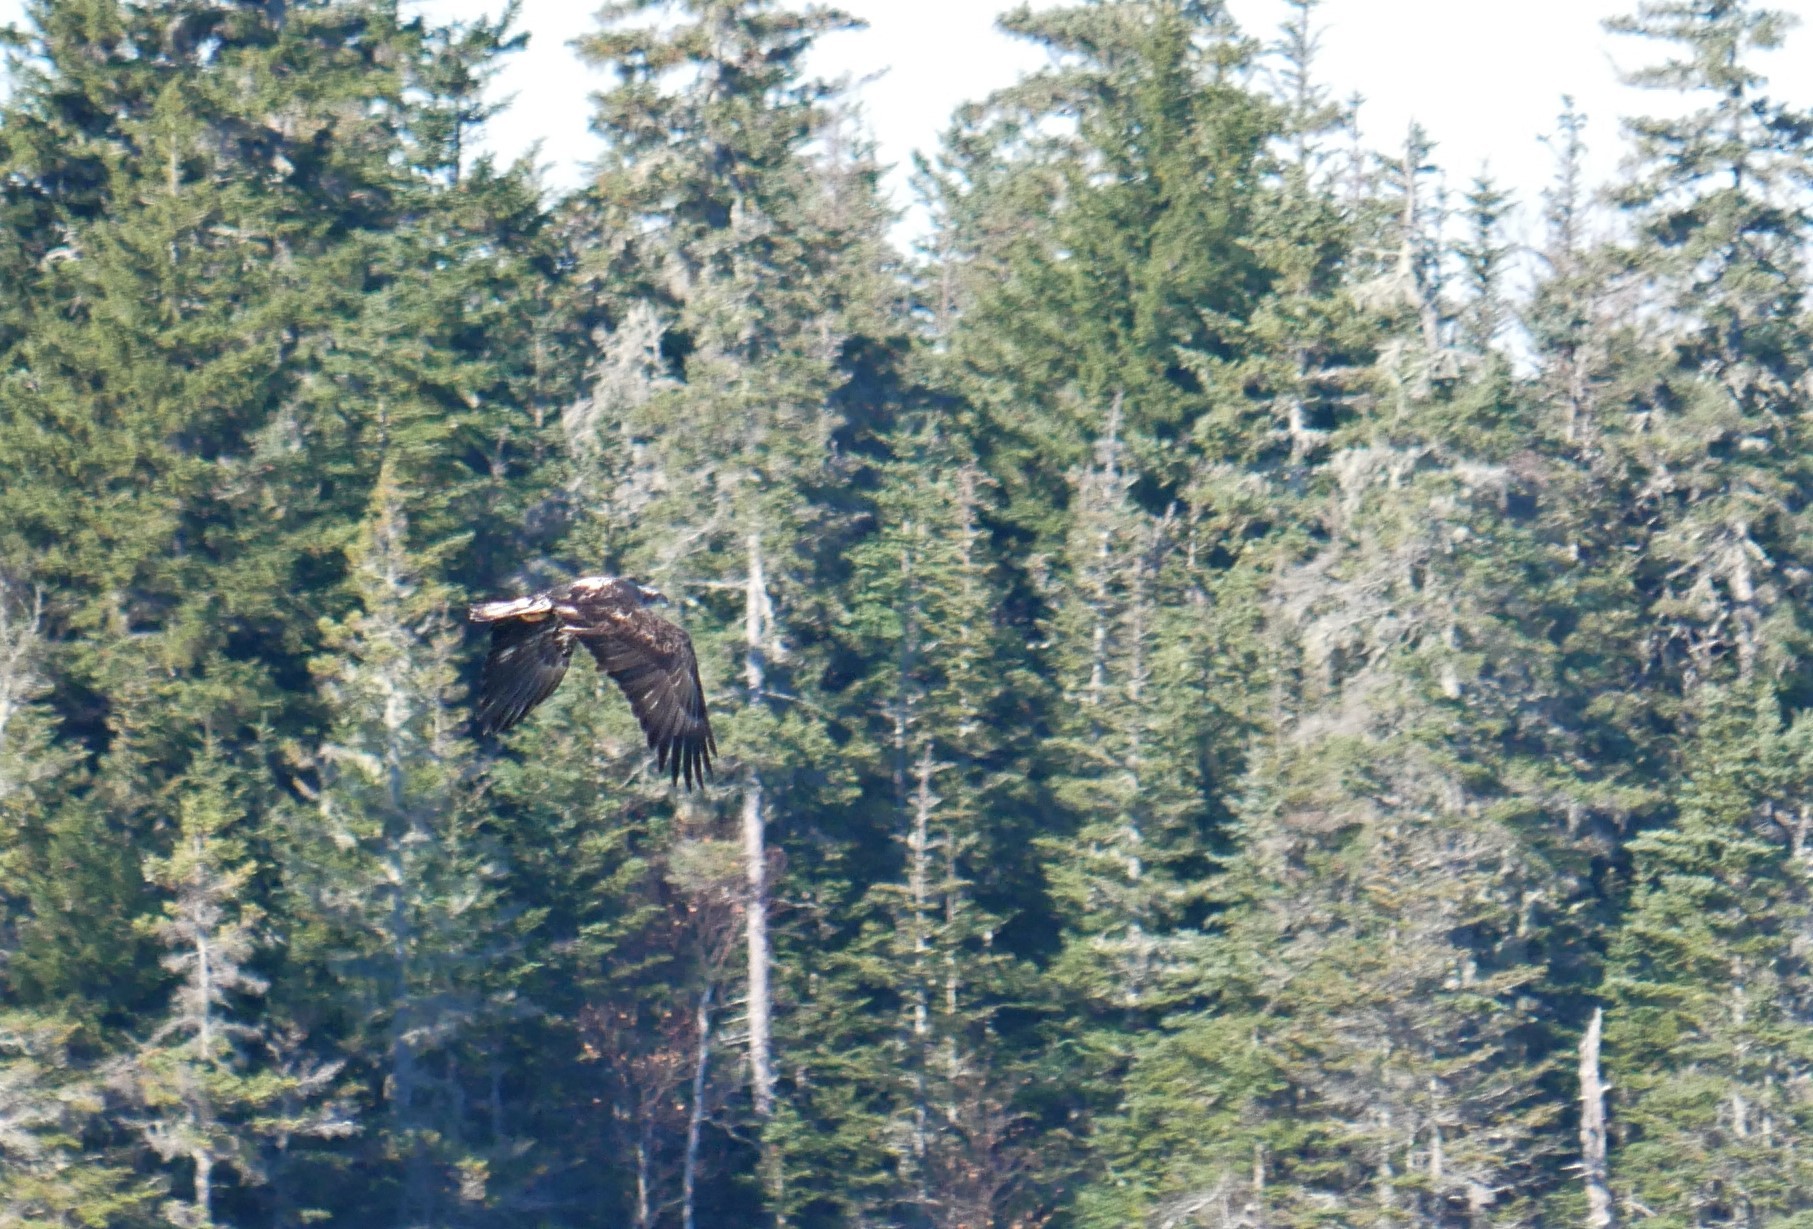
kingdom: Animalia
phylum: Chordata
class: Aves
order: Accipitriformes
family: Accipitridae
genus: Haliaeetus
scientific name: Haliaeetus leucocephalus
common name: Bald eagle
